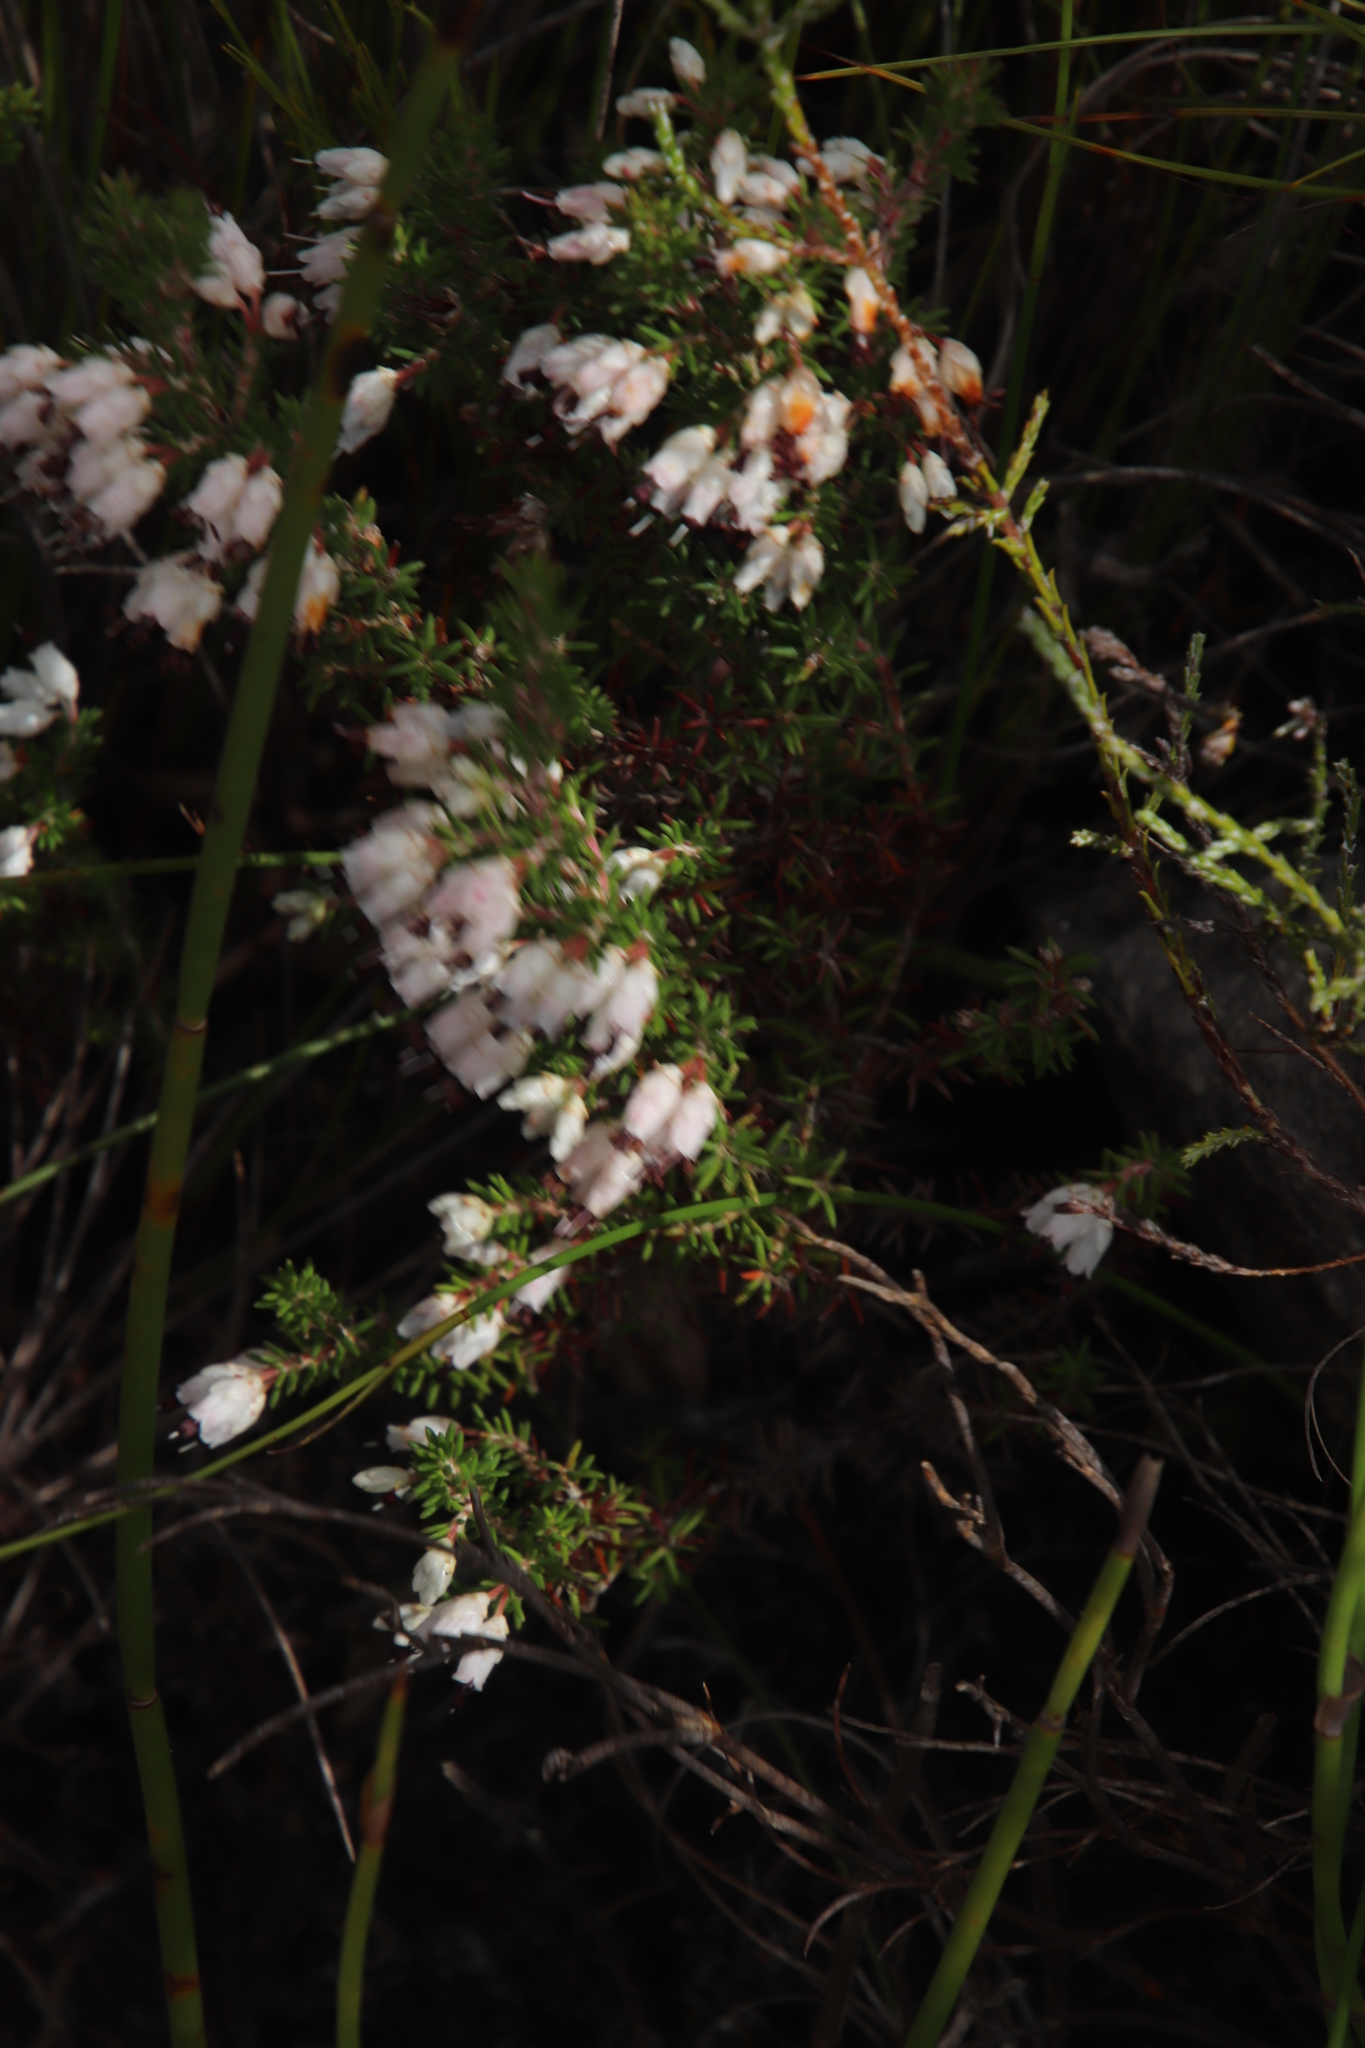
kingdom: Plantae
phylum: Tracheophyta
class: Magnoliopsida
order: Ericales
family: Ericaceae
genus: Erica
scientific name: Erica desmantha
